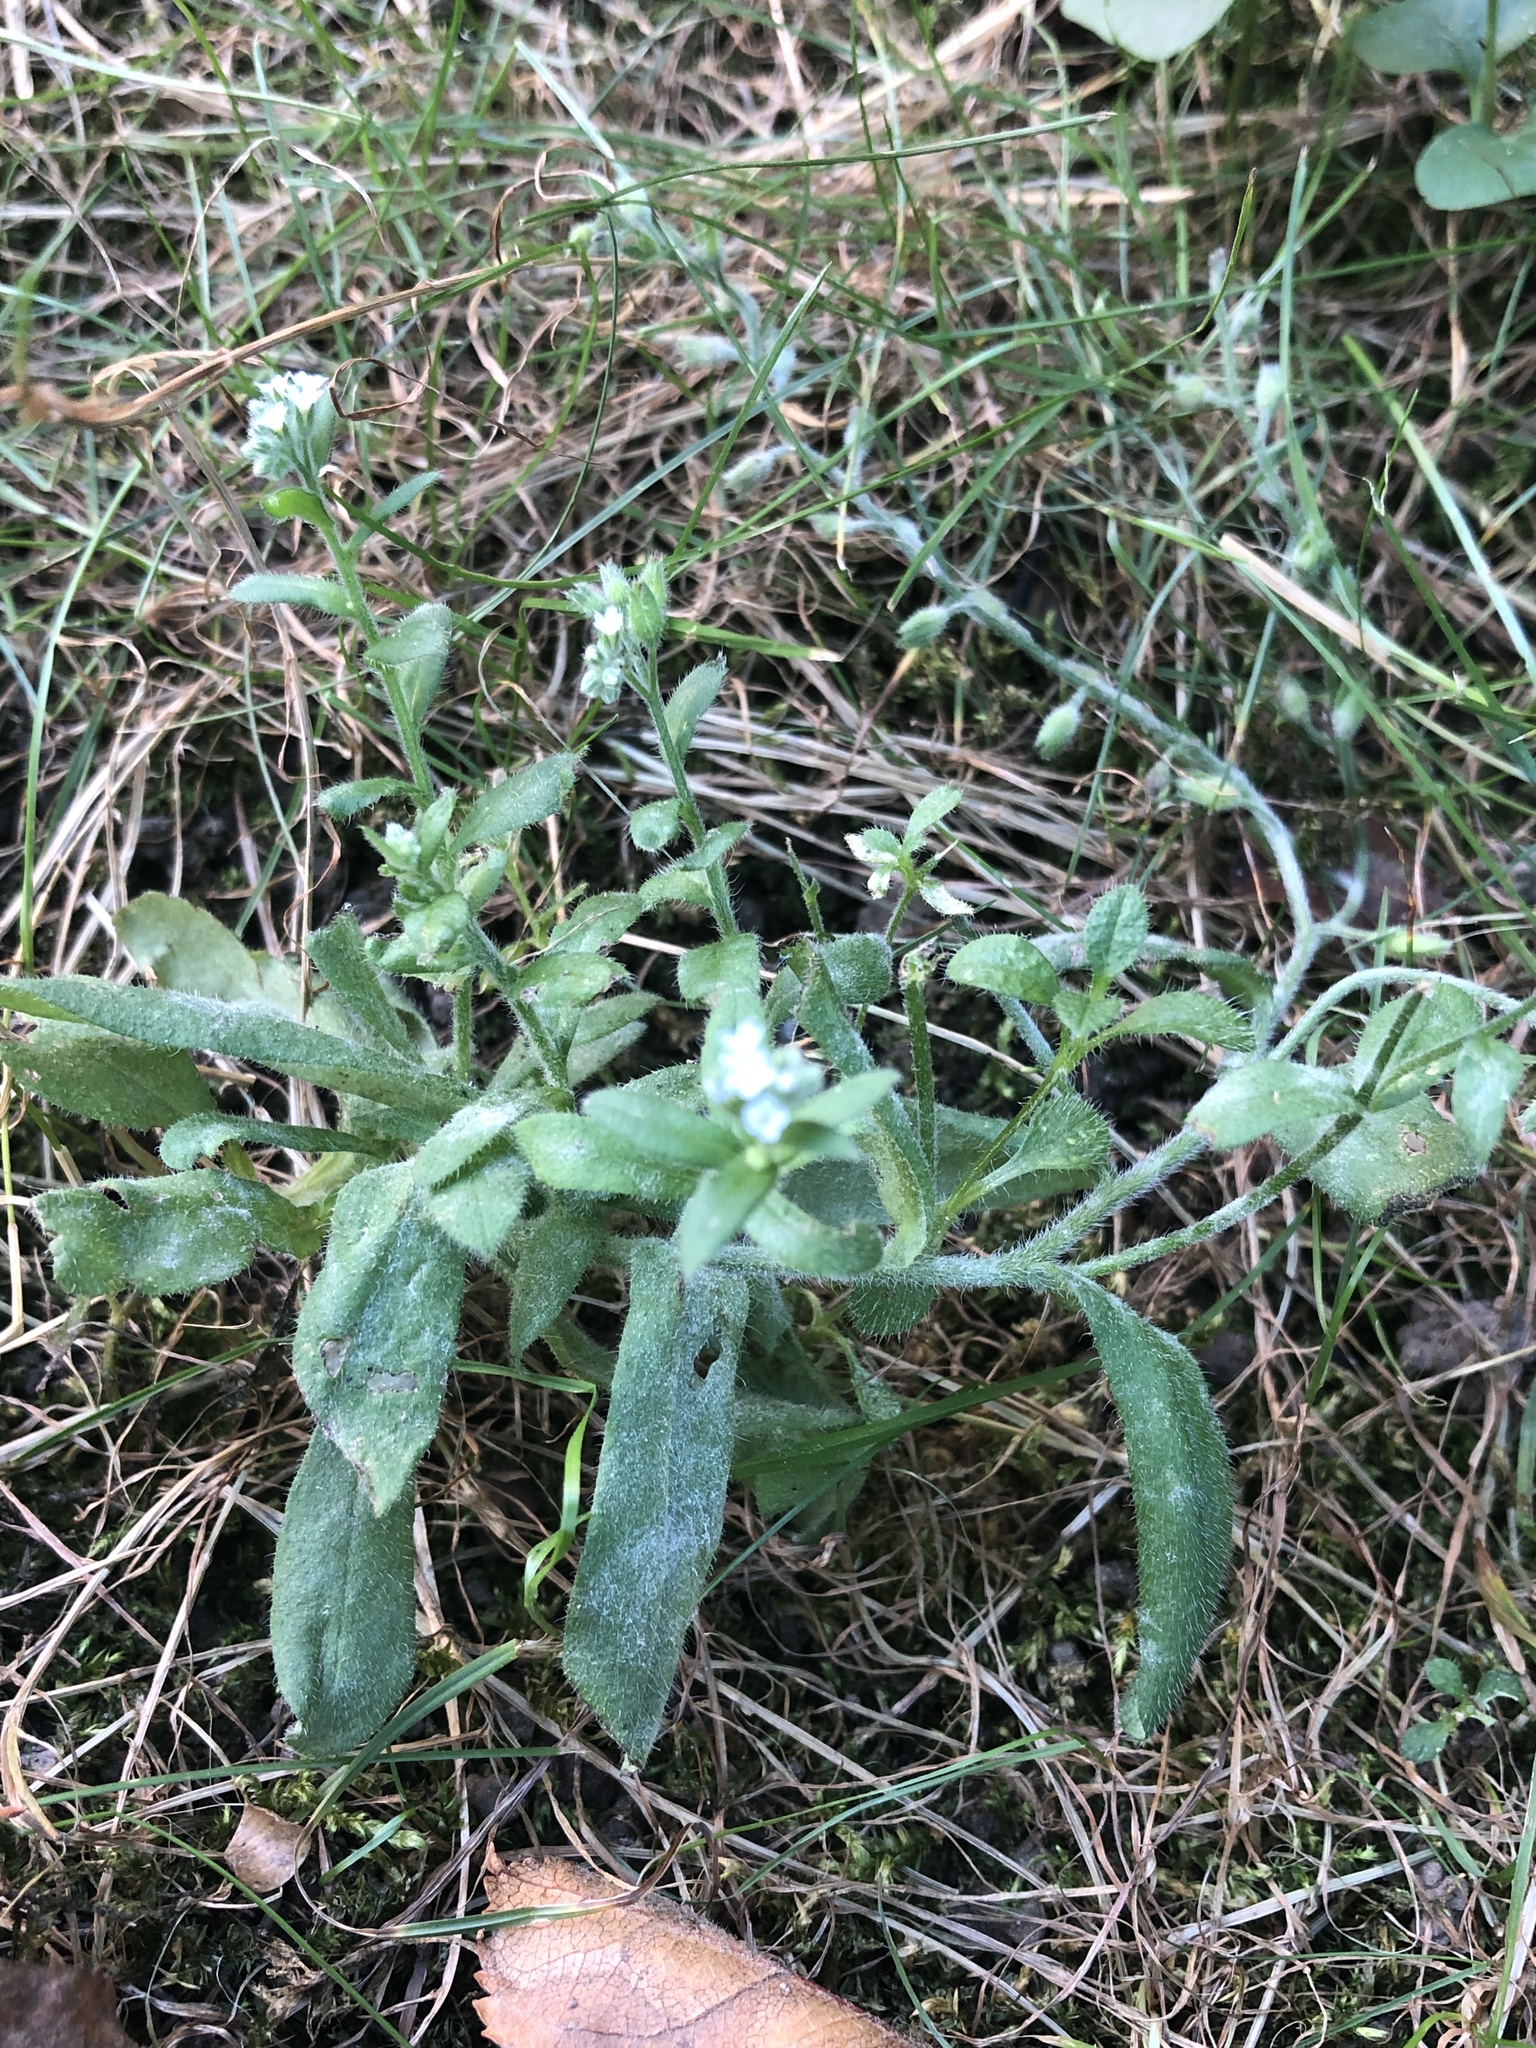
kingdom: Plantae
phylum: Tracheophyta
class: Magnoliopsida
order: Boraginales
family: Boraginaceae
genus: Myosotis
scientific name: Myosotis arvensis
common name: Field forget-me-not
